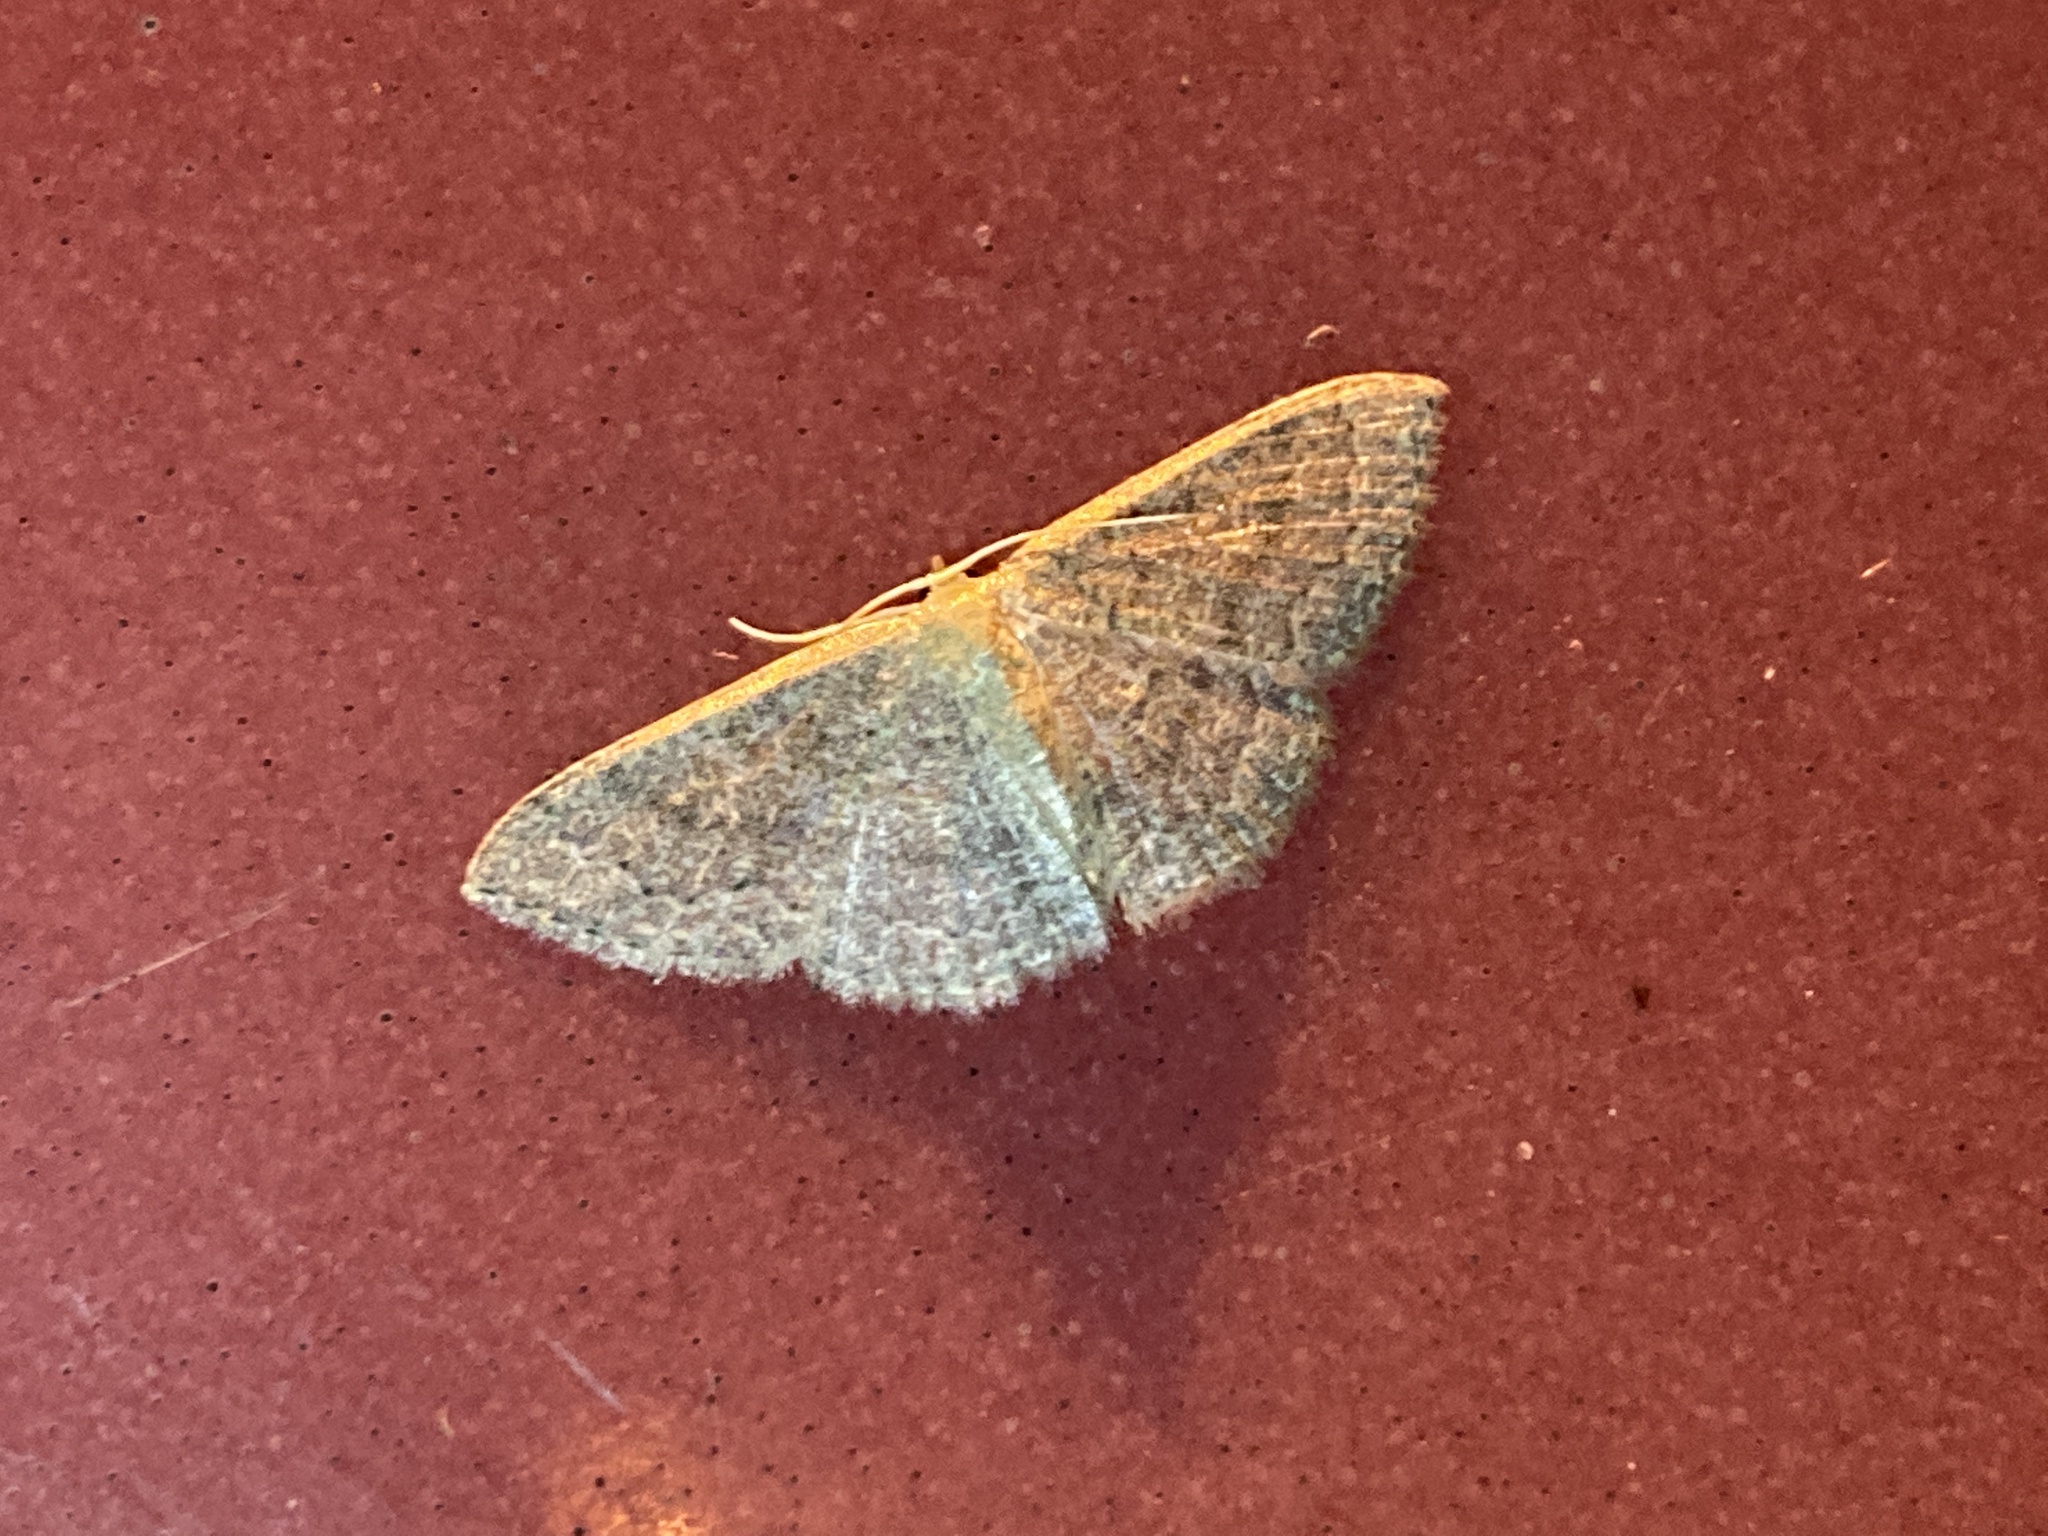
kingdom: Animalia
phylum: Arthropoda
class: Insecta
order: Lepidoptera
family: Geometridae
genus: Pleuroprucha
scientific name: Pleuroprucha insulsaria
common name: Common tan wave
